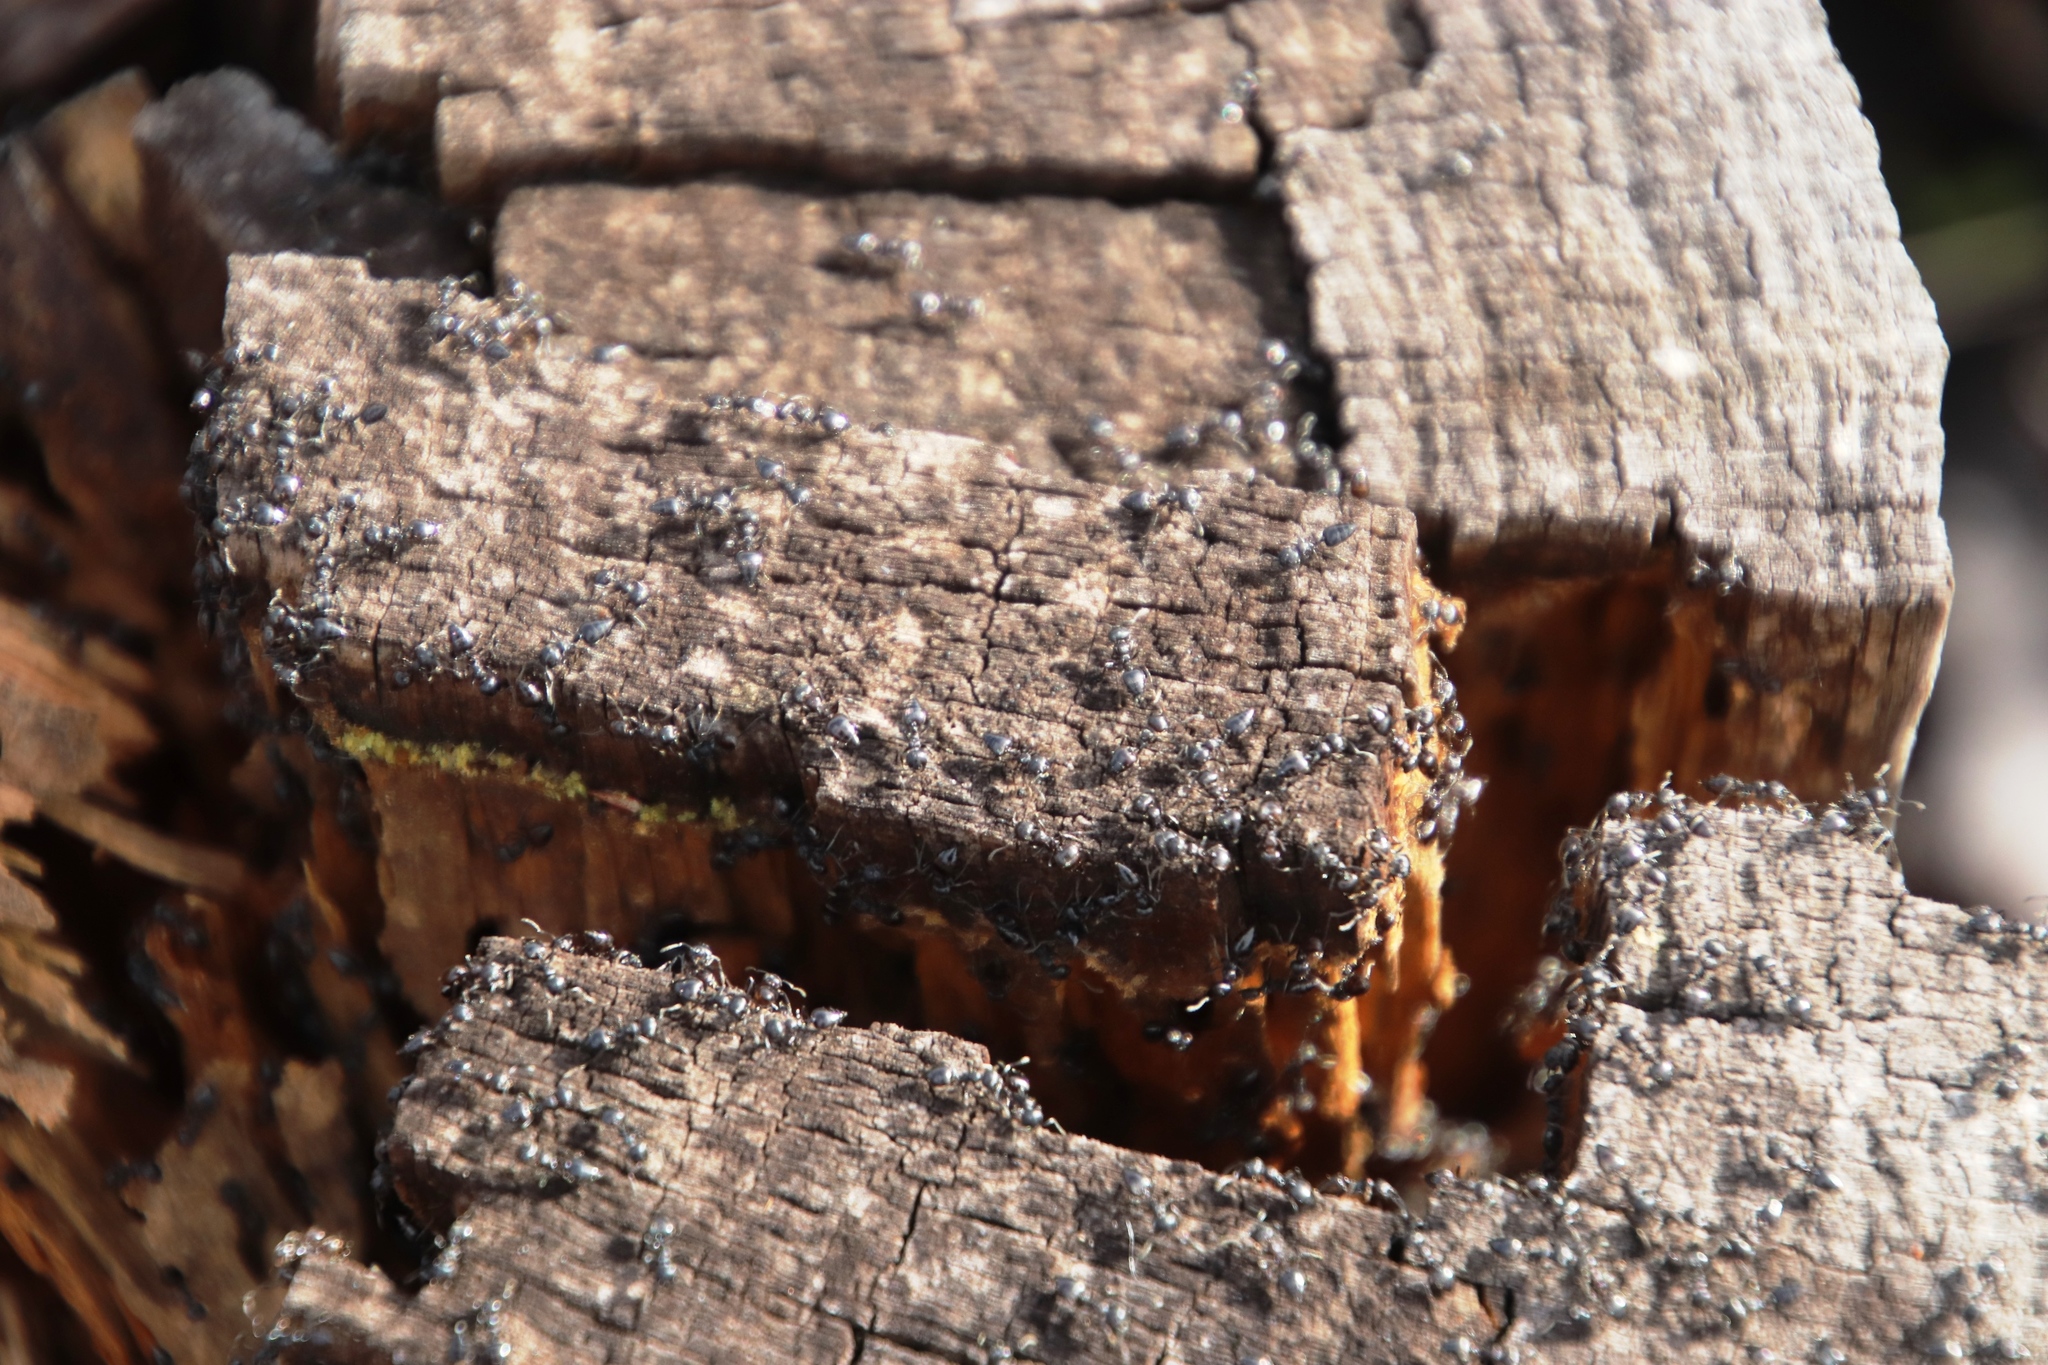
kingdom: Animalia
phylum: Arthropoda
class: Insecta
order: Hymenoptera
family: Formicidae
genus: Crematogaster
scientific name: Crematogaster peringueyi
